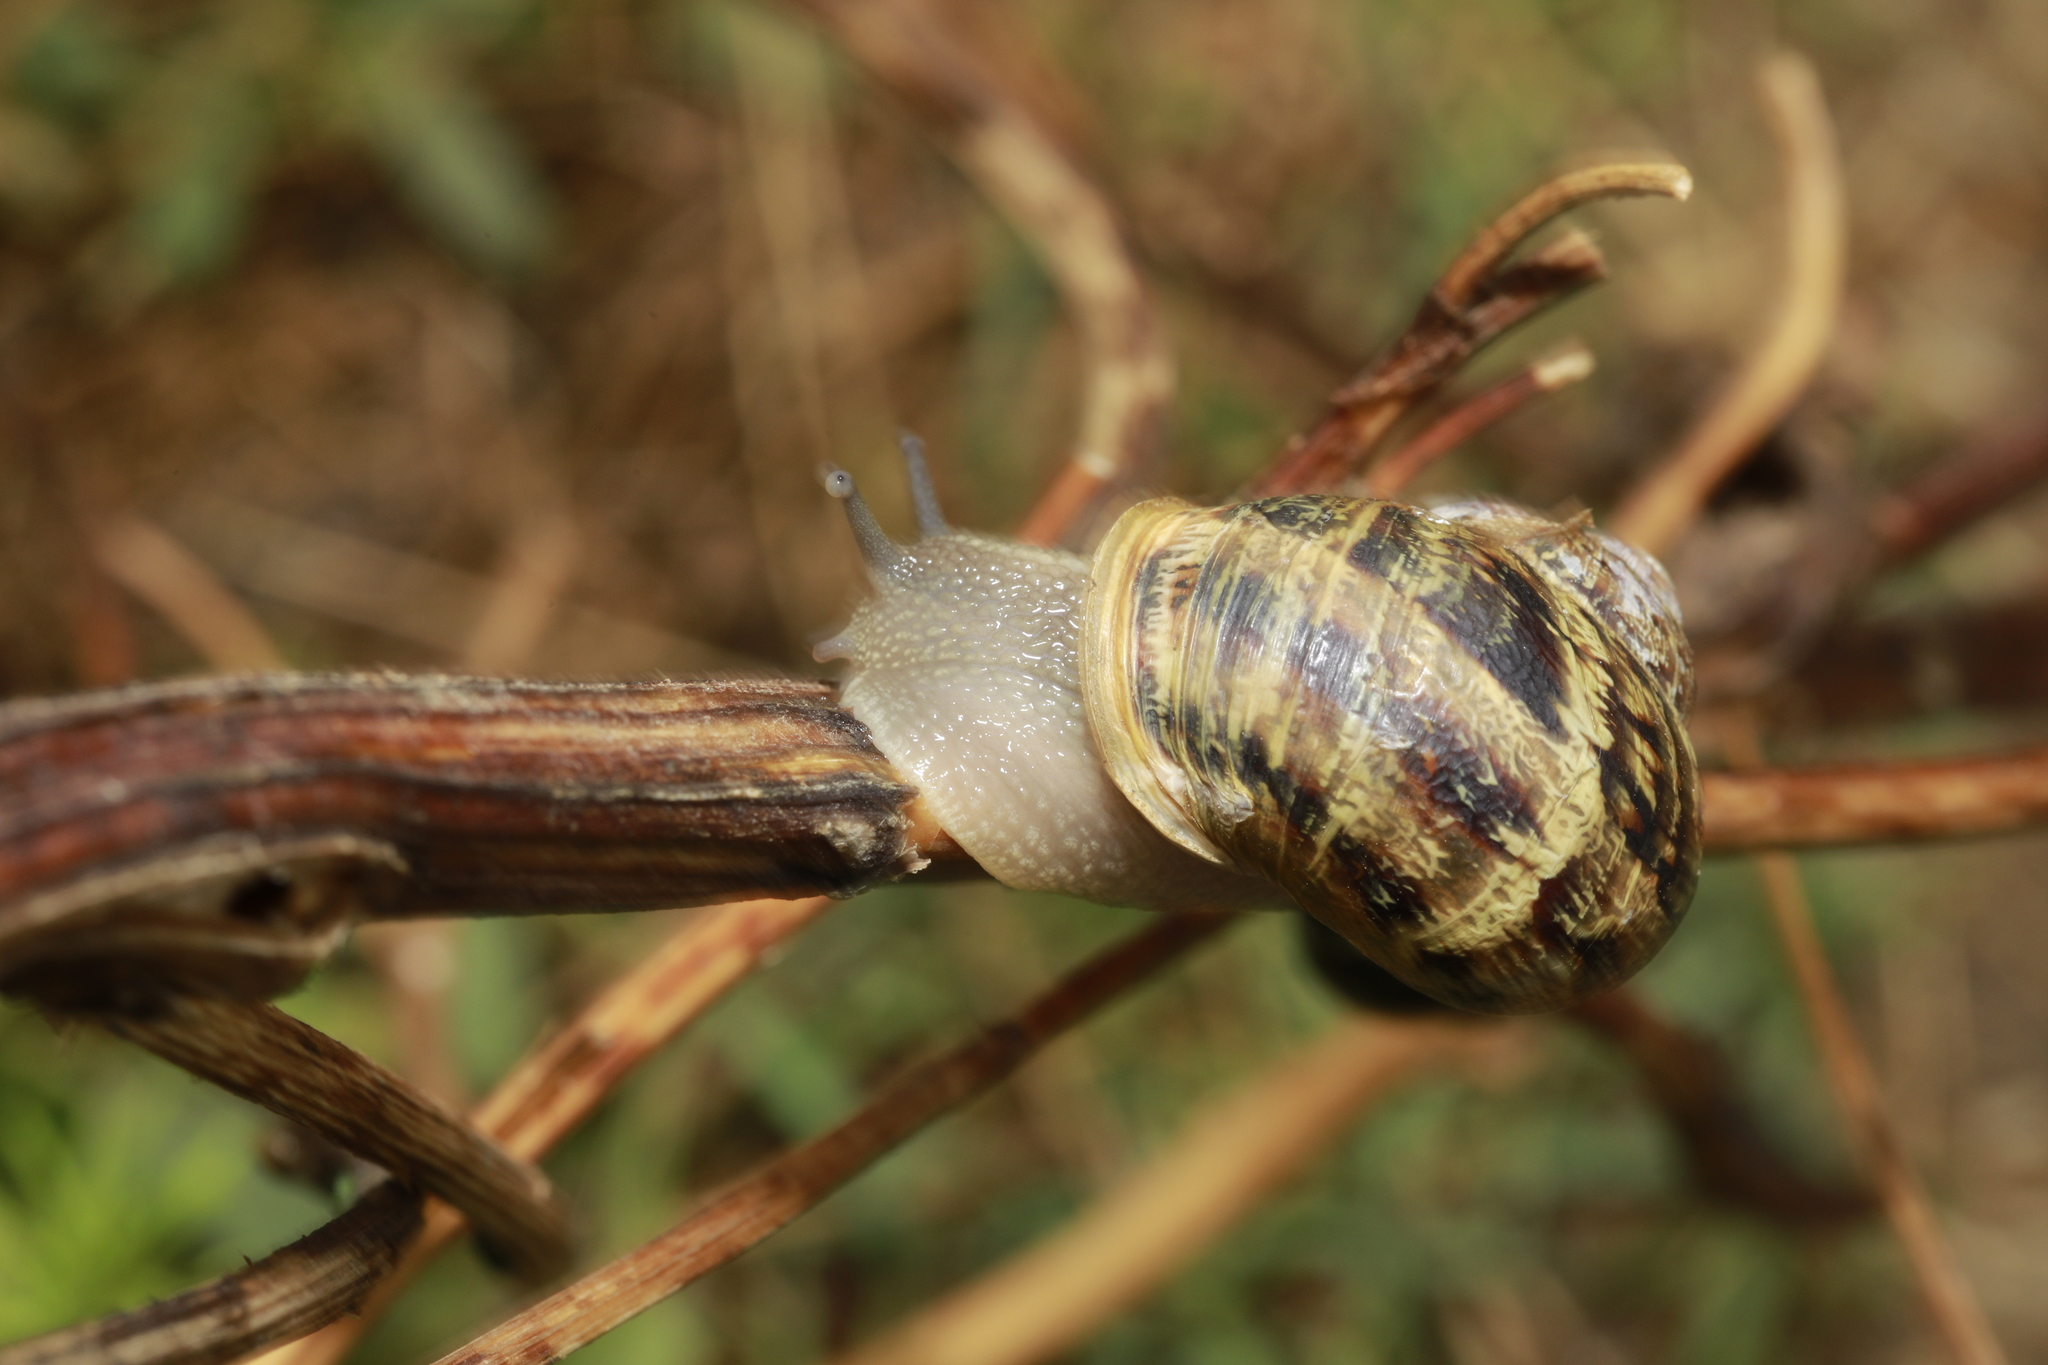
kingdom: Animalia
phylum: Mollusca
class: Gastropoda
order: Stylommatophora
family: Helicidae
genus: Cornu
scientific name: Cornu aspersum
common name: Brown garden snail
